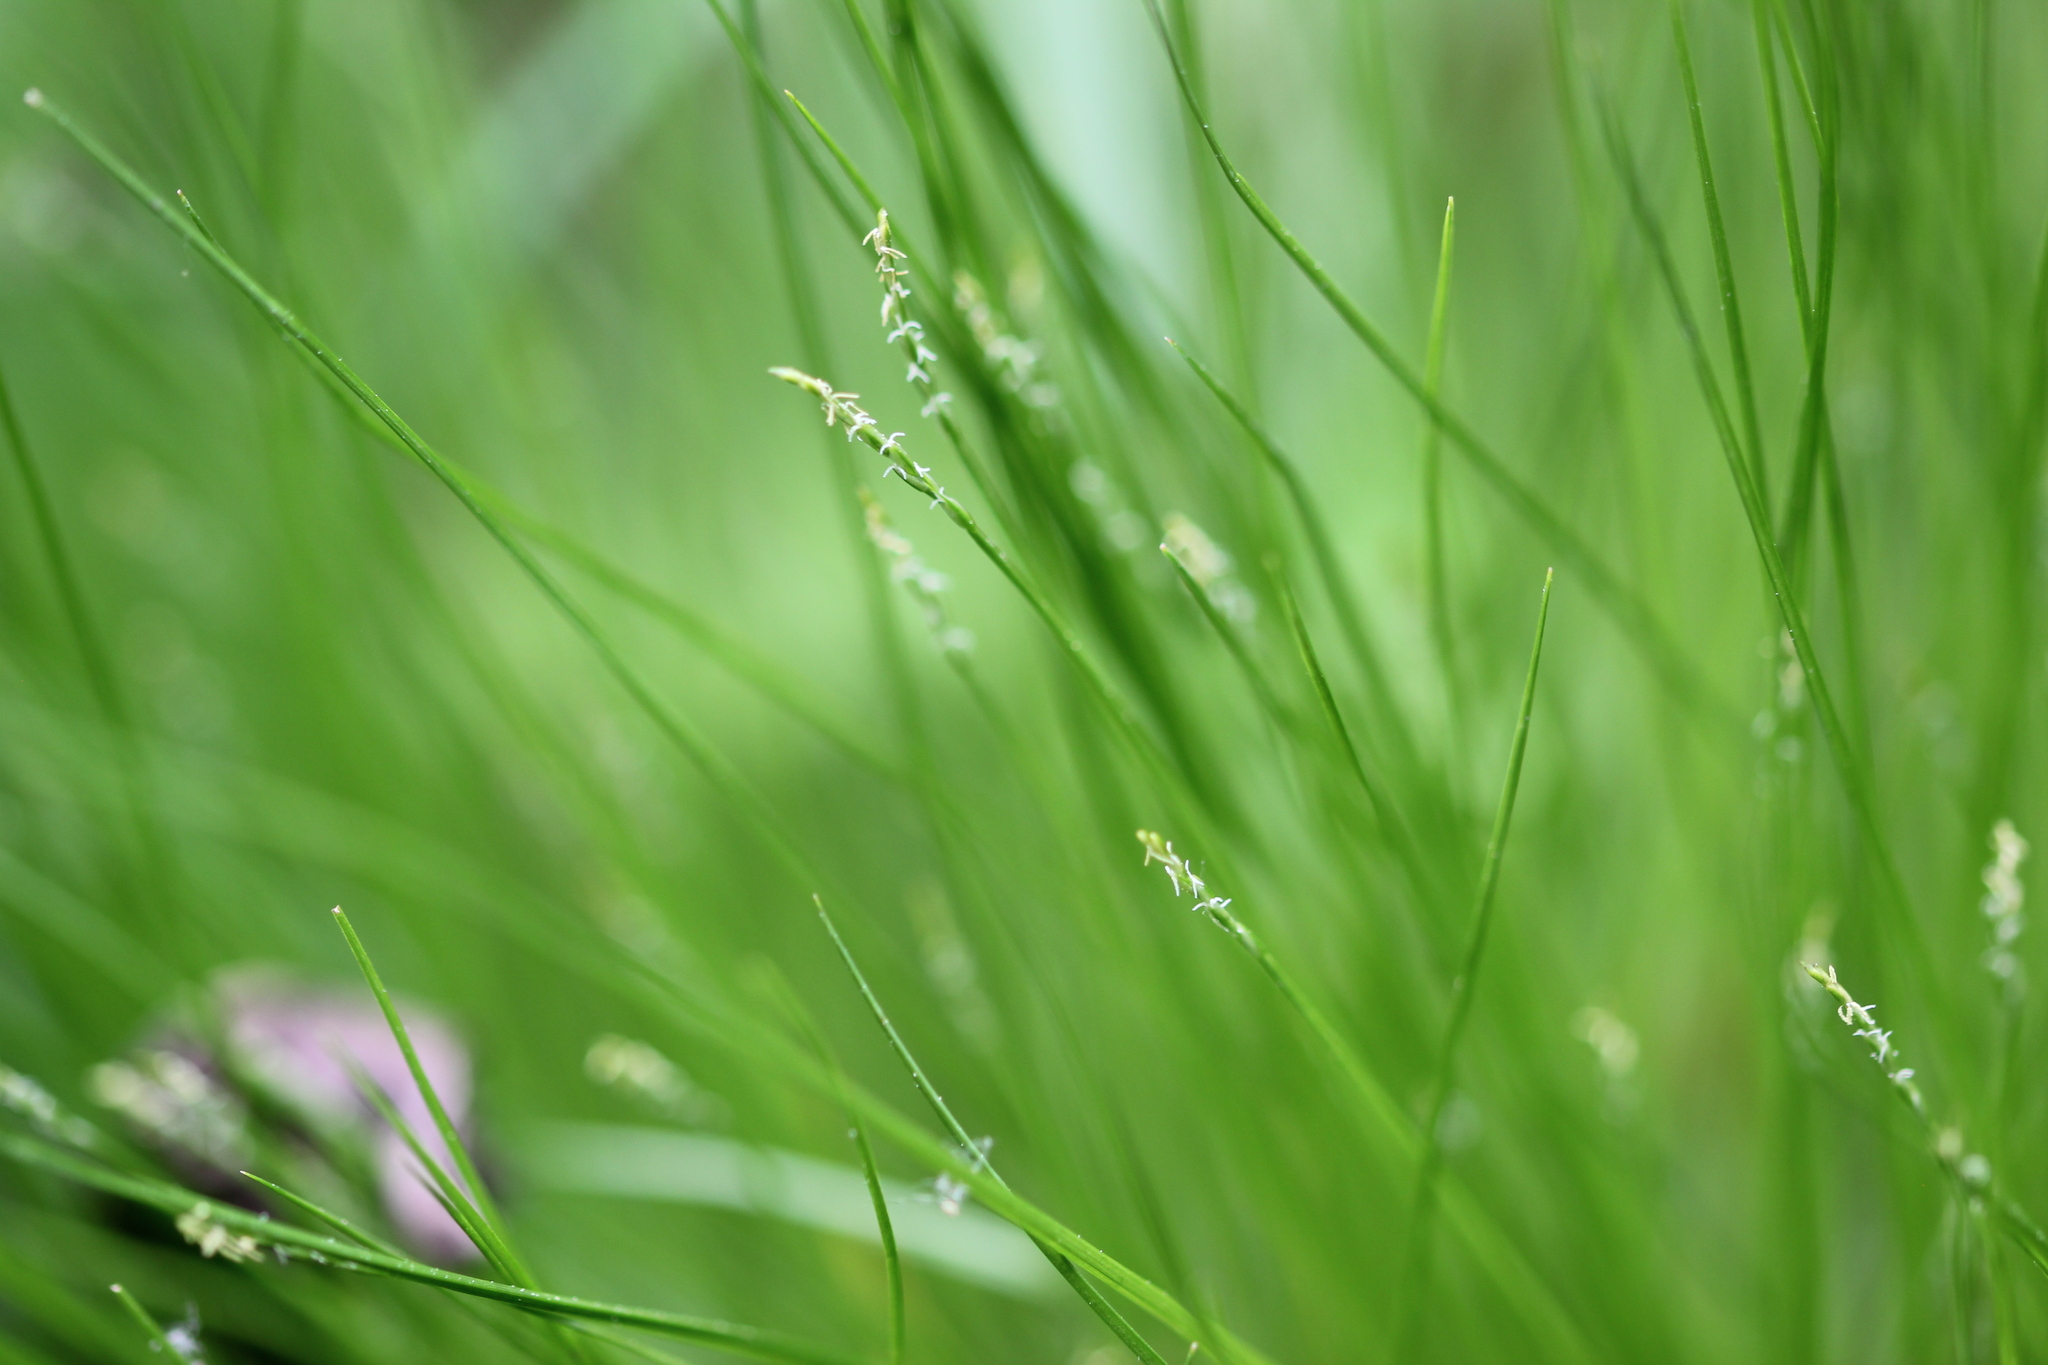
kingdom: Plantae
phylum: Tracheophyta
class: Liliopsida
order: Poales
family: Cyperaceae
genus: Carex
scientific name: Carex leptalea
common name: Bristly-stalked sedge
